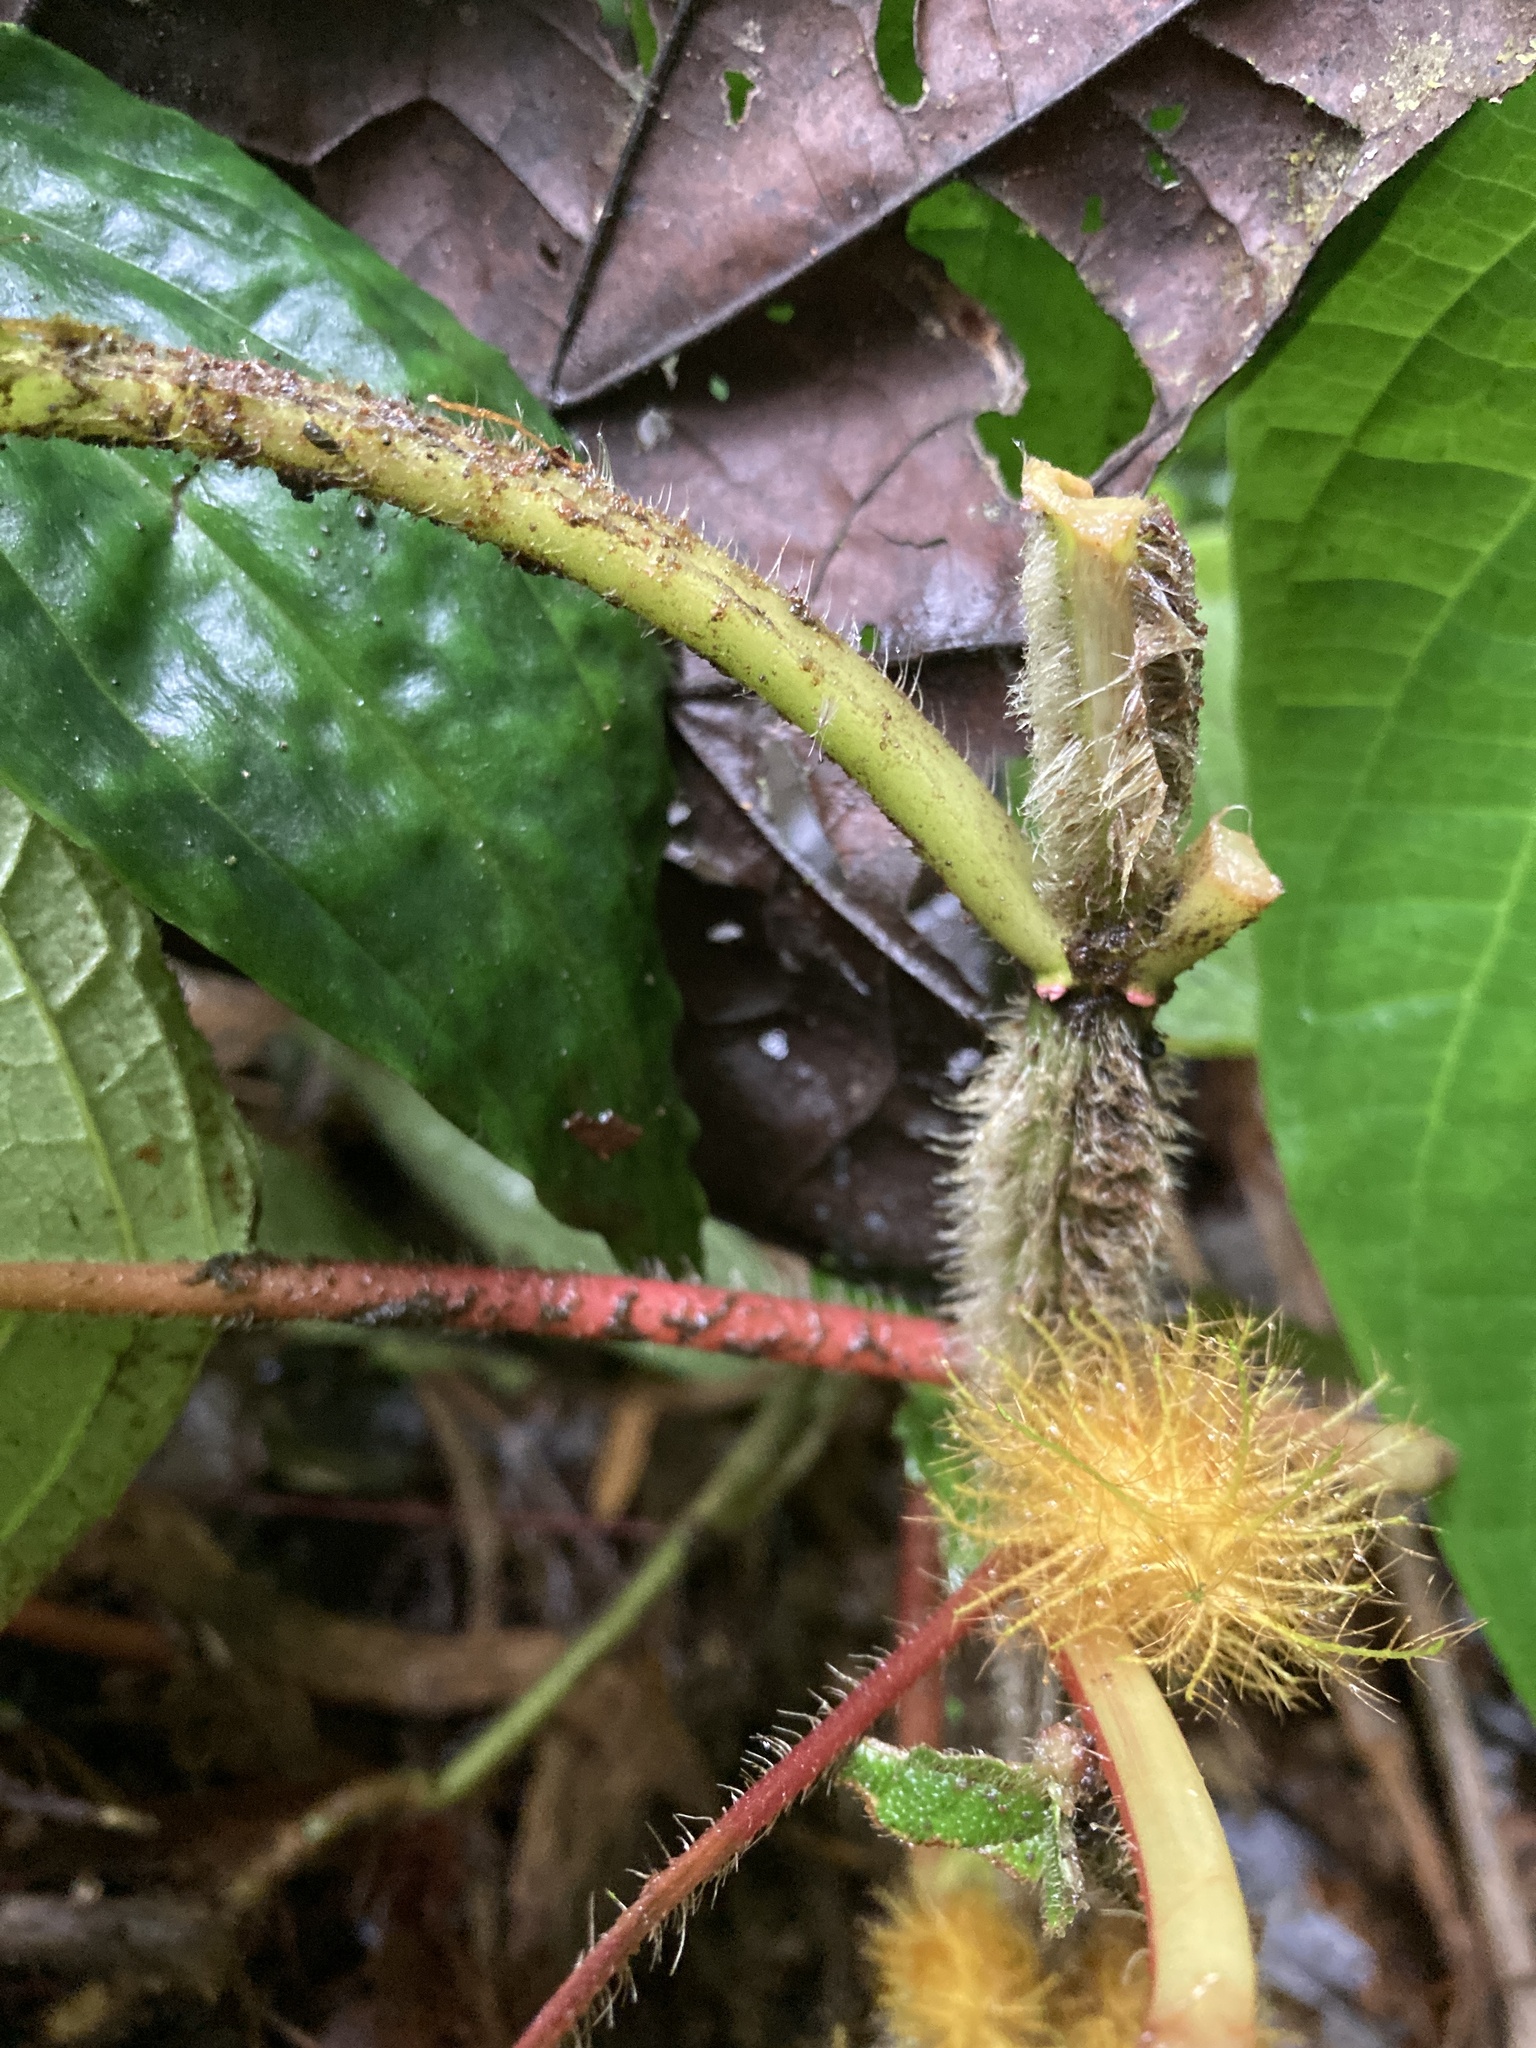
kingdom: Plantae
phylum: Tracheophyta
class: Magnoliopsida
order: Lamiales
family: Gesneriaceae
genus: Glossoloma
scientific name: Glossoloma sprucei
